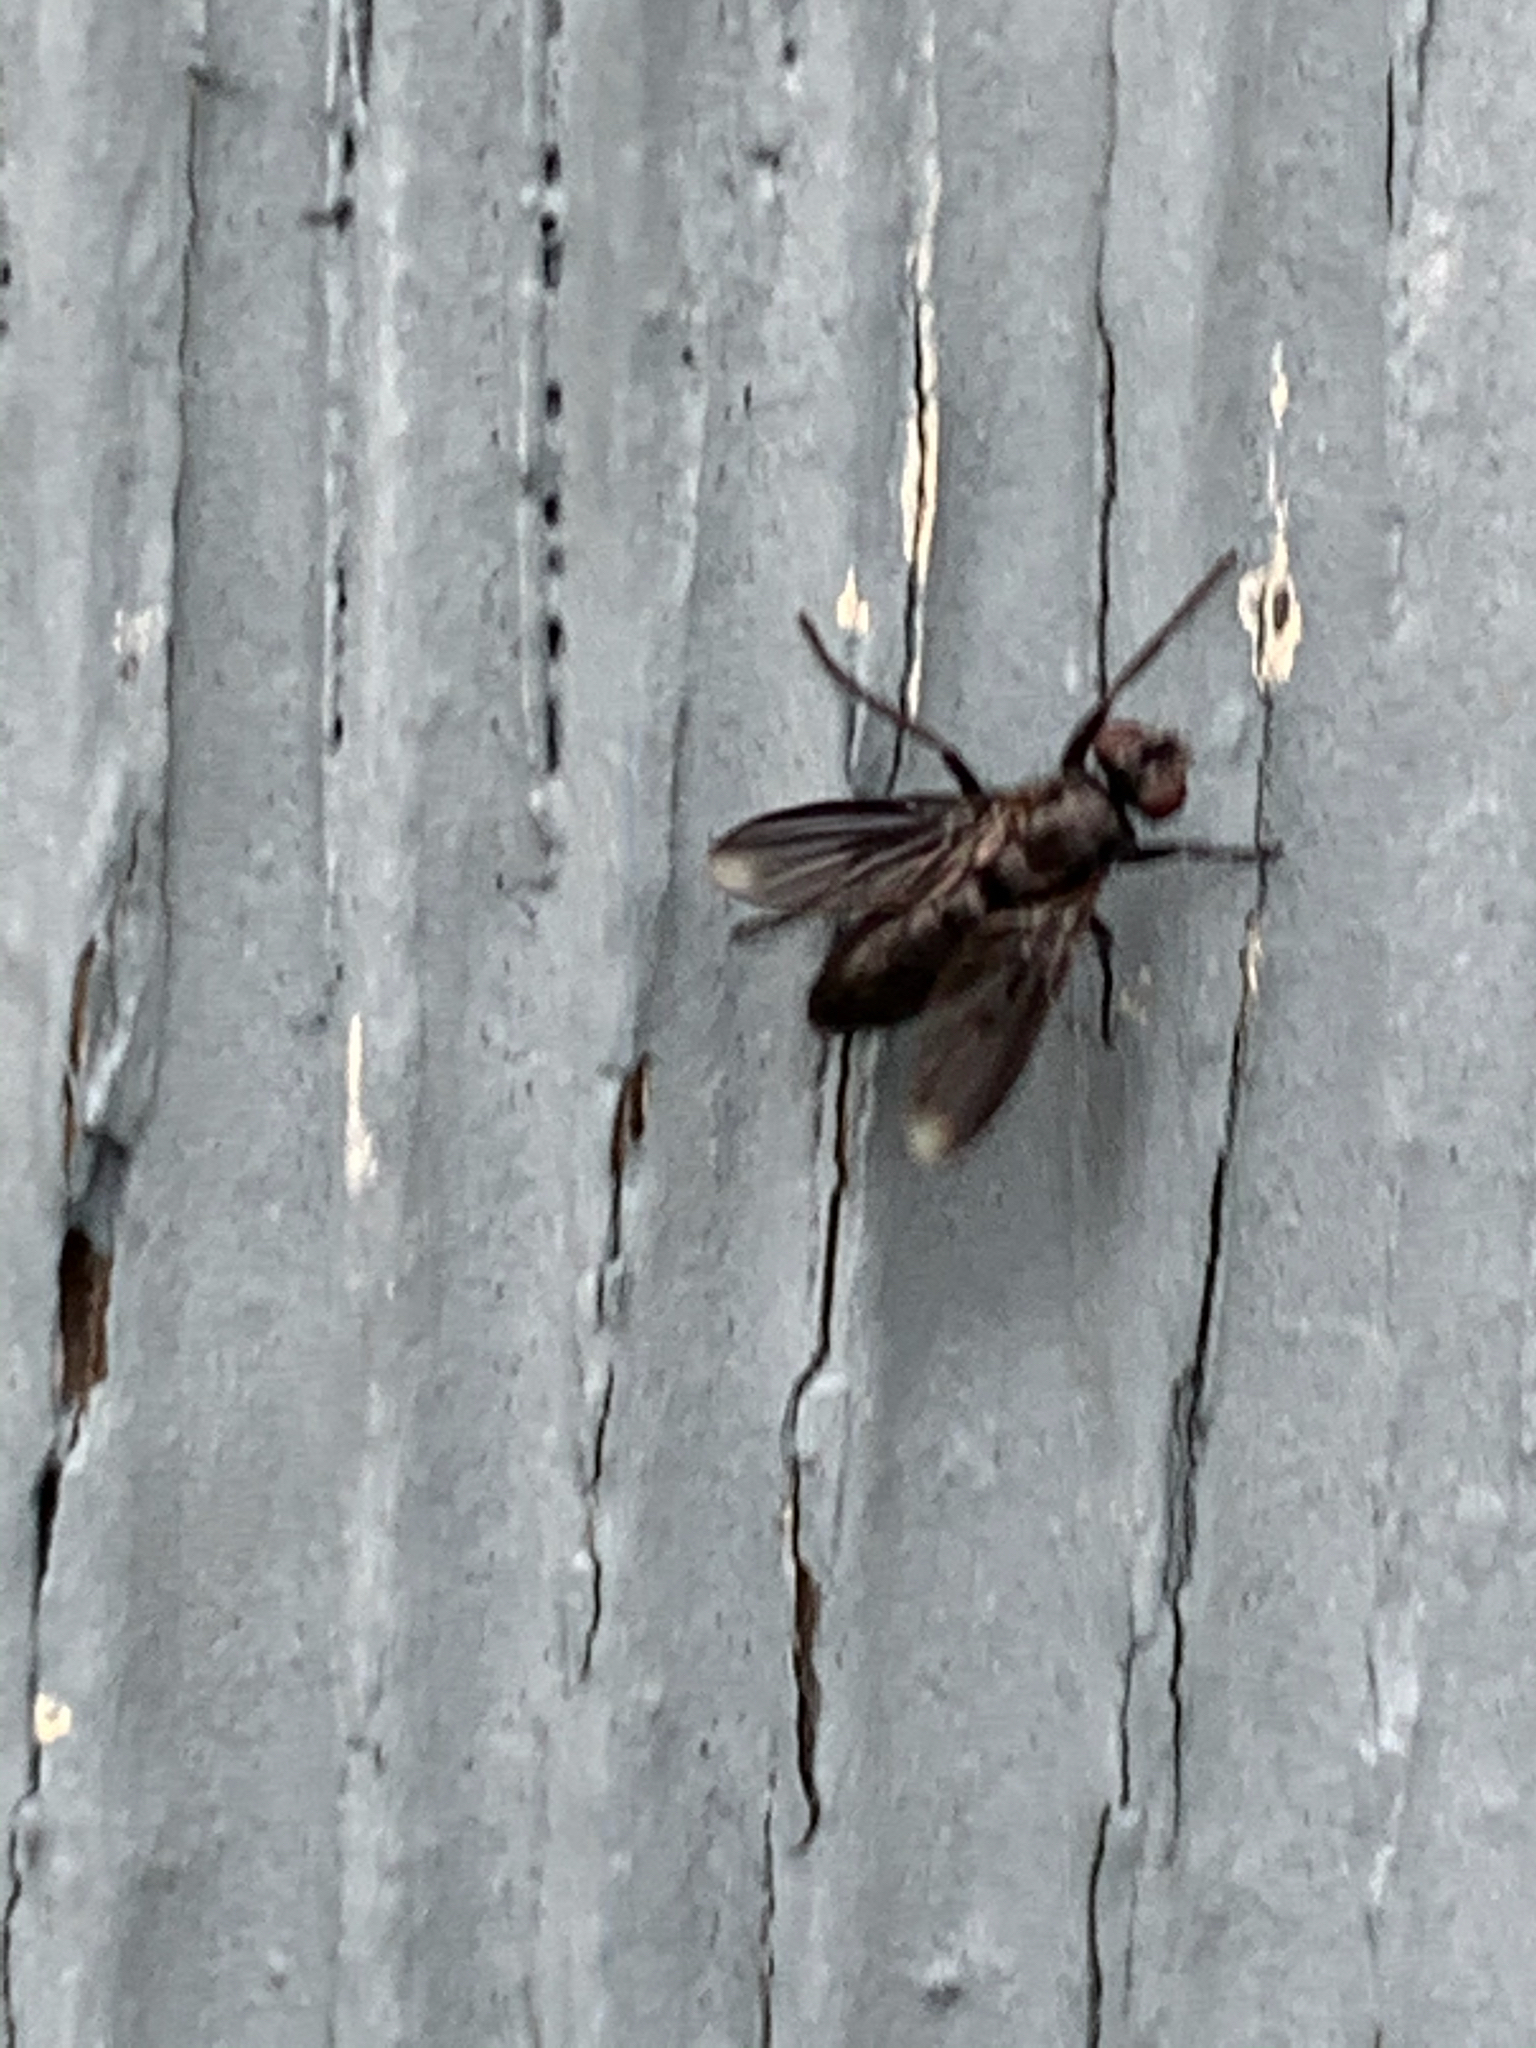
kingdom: Animalia
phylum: Arthropoda
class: Insecta
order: Diptera
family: Calliphoridae
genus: Melanophora
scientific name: Melanophora roralis
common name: Smoky-winged woodlouse-fly
